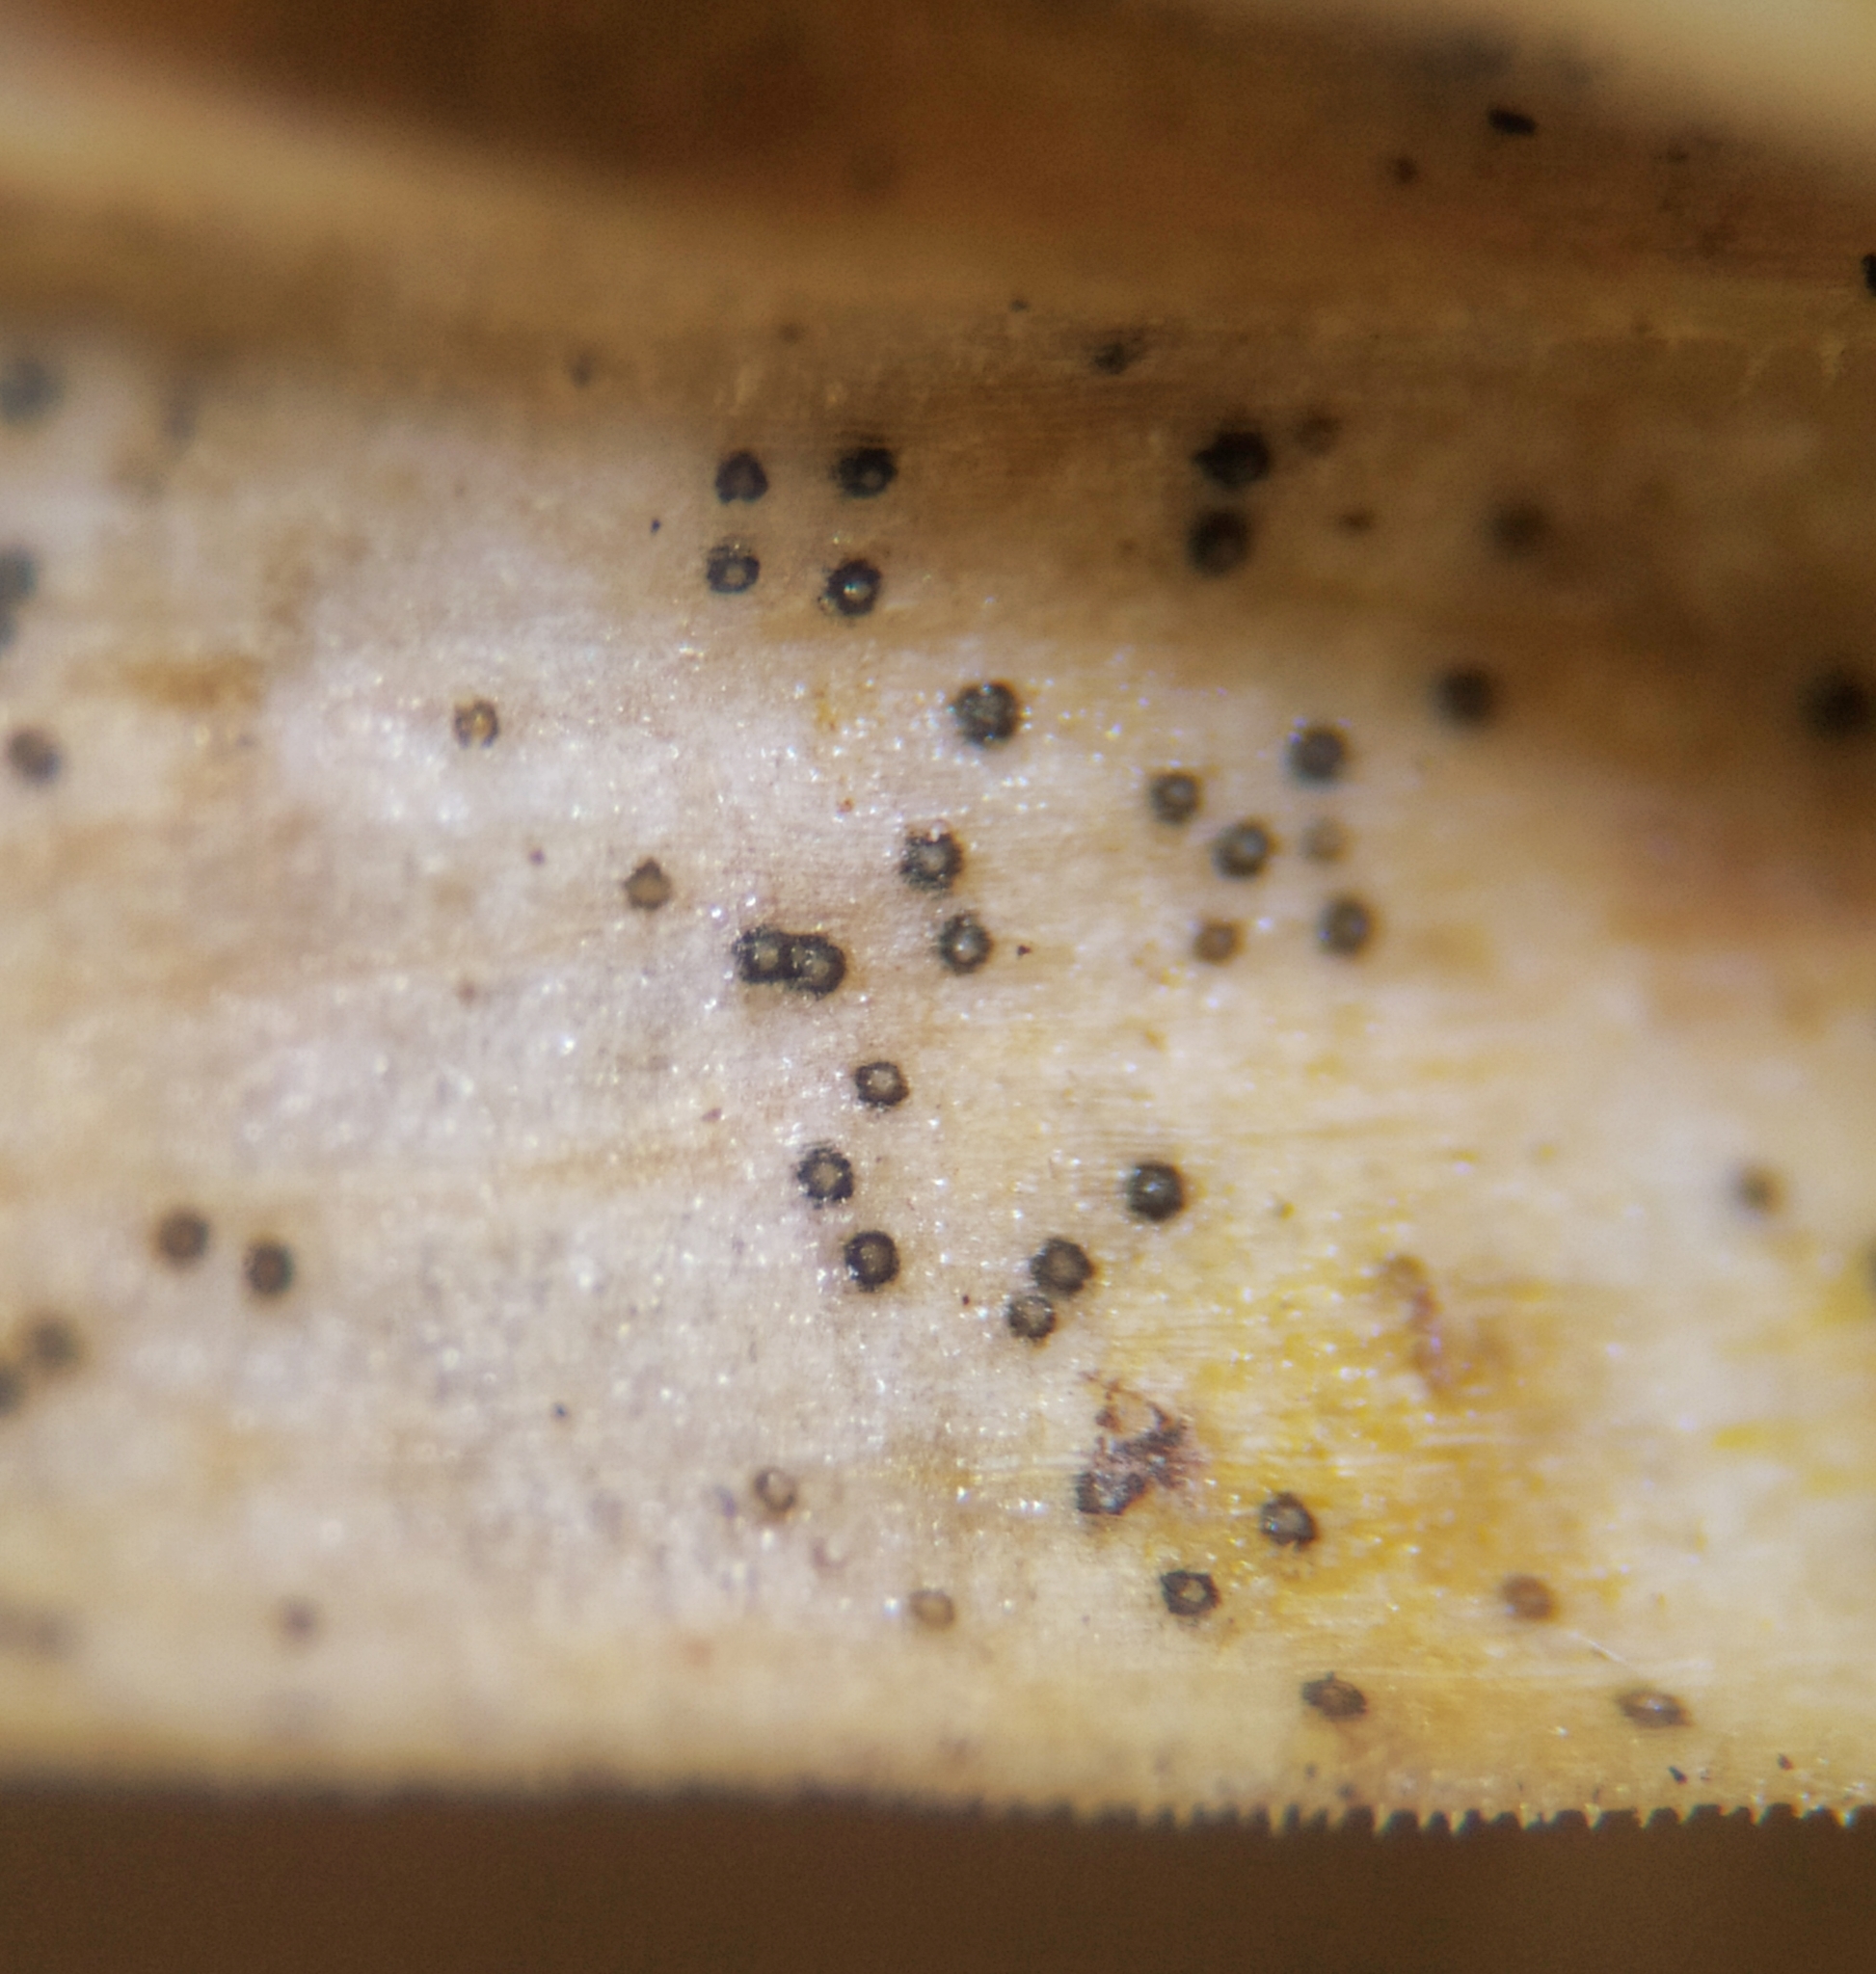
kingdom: Fungi
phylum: Ascomycota
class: Dothideomycetes
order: Mycosphaerellales
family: Mycosphaerellaceae
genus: Septoria
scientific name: Septoria stellariae
